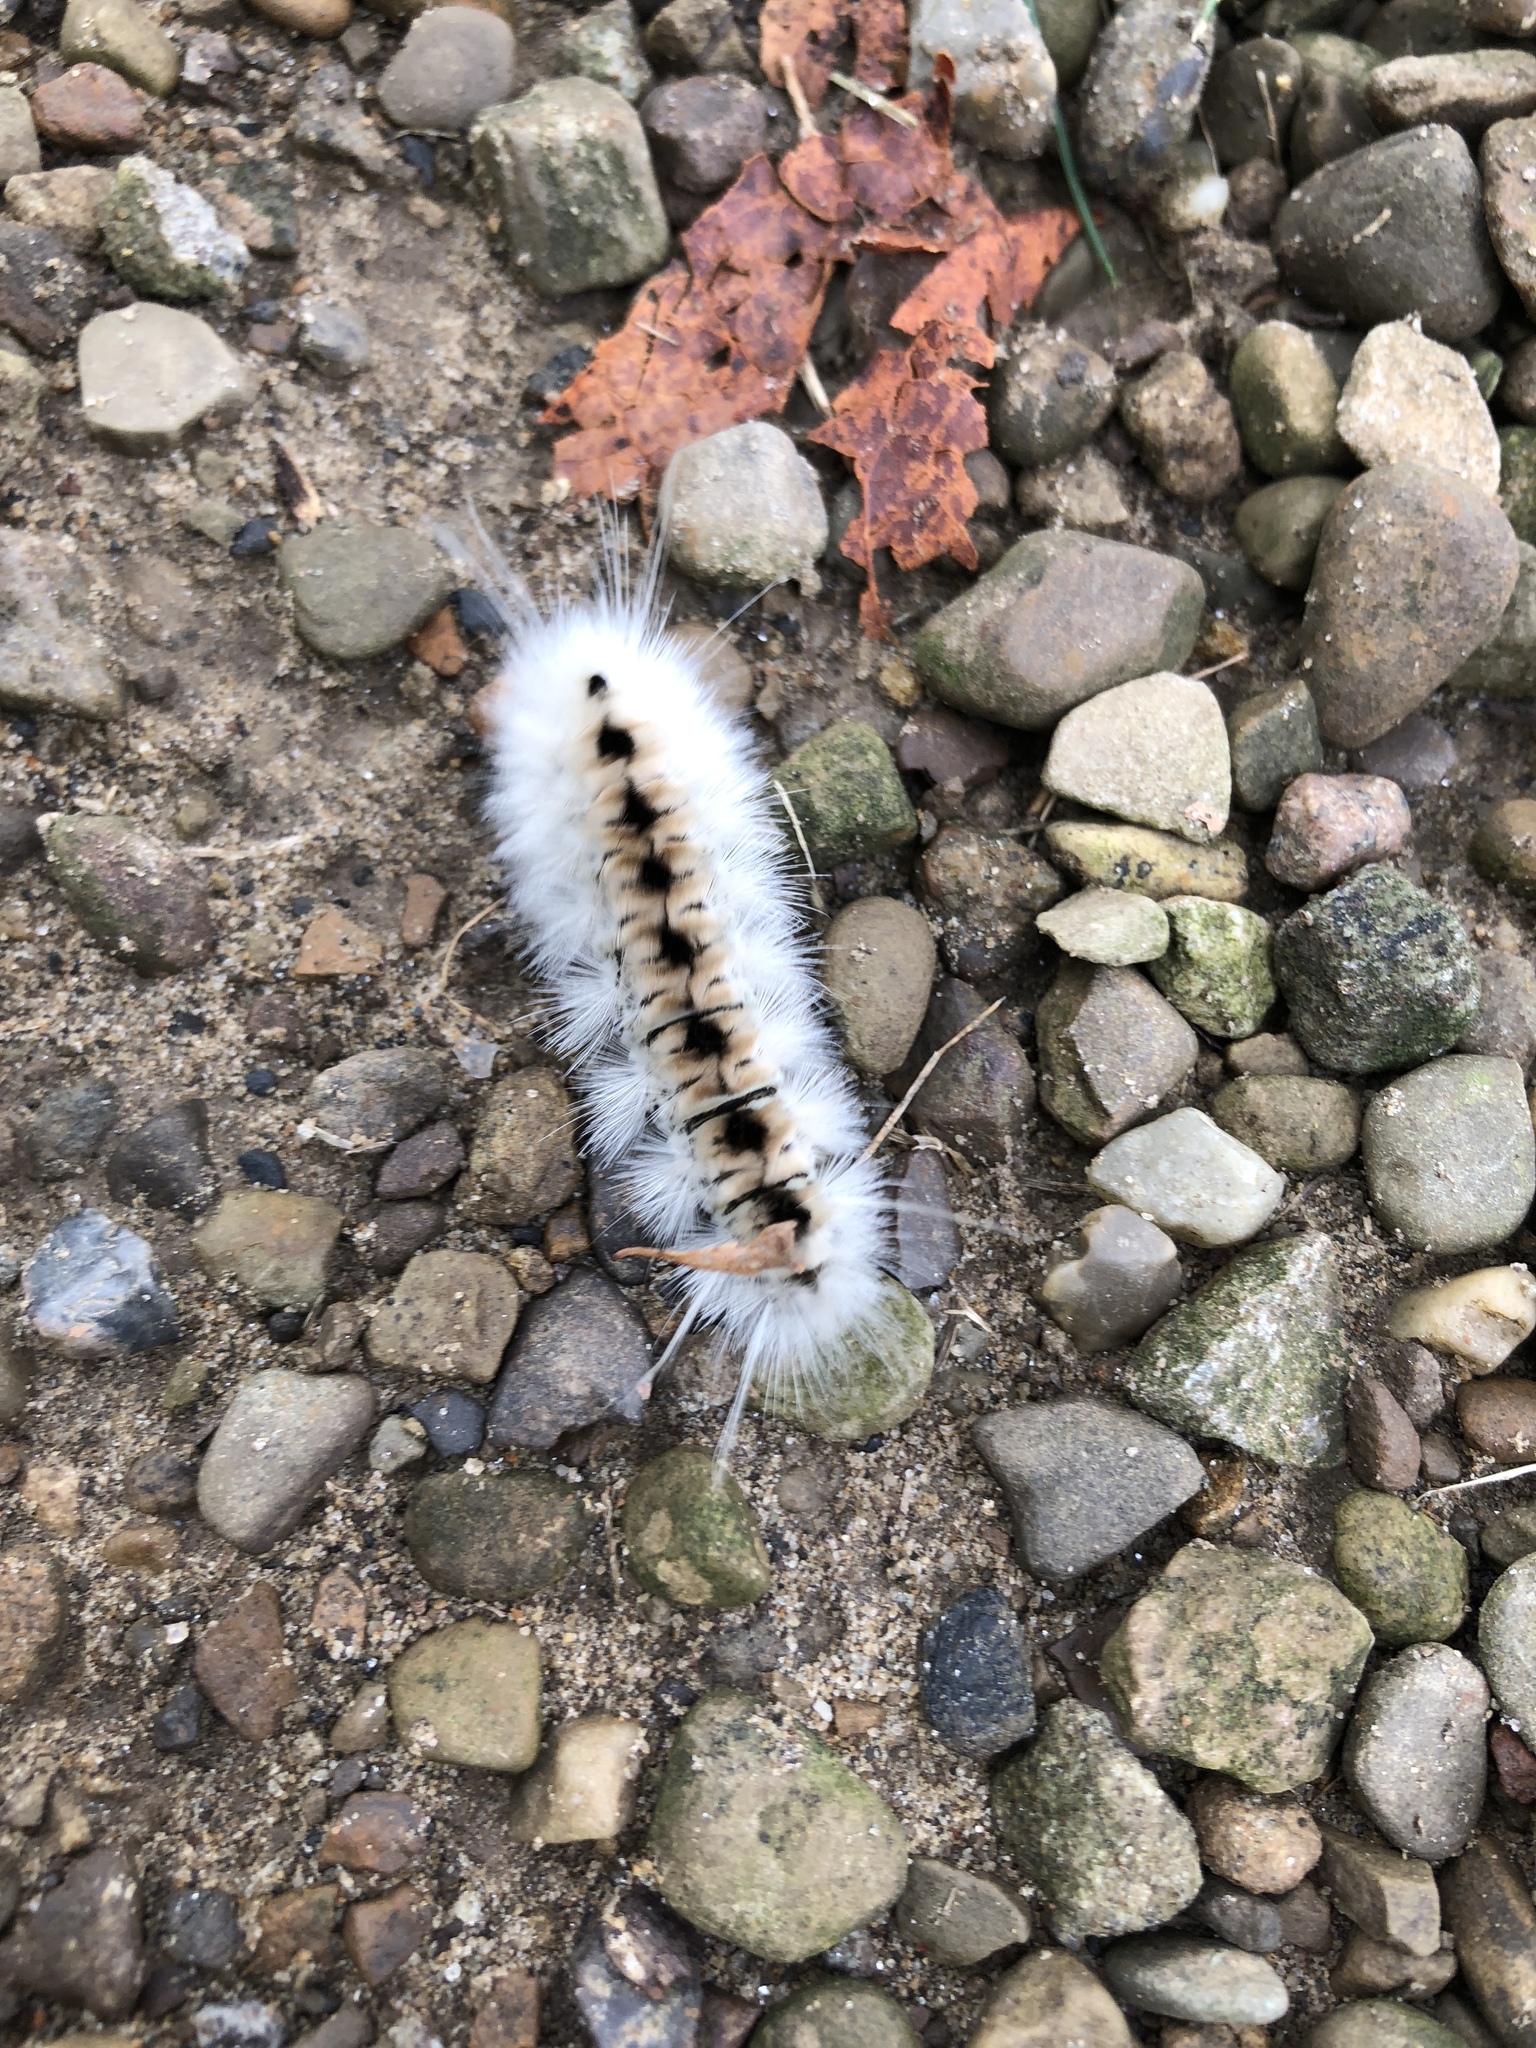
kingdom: Animalia
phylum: Arthropoda
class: Insecta
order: Lepidoptera
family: Erebidae
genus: Lophocampa
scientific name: Lophocampa caryae
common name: Hickory tussock moth
